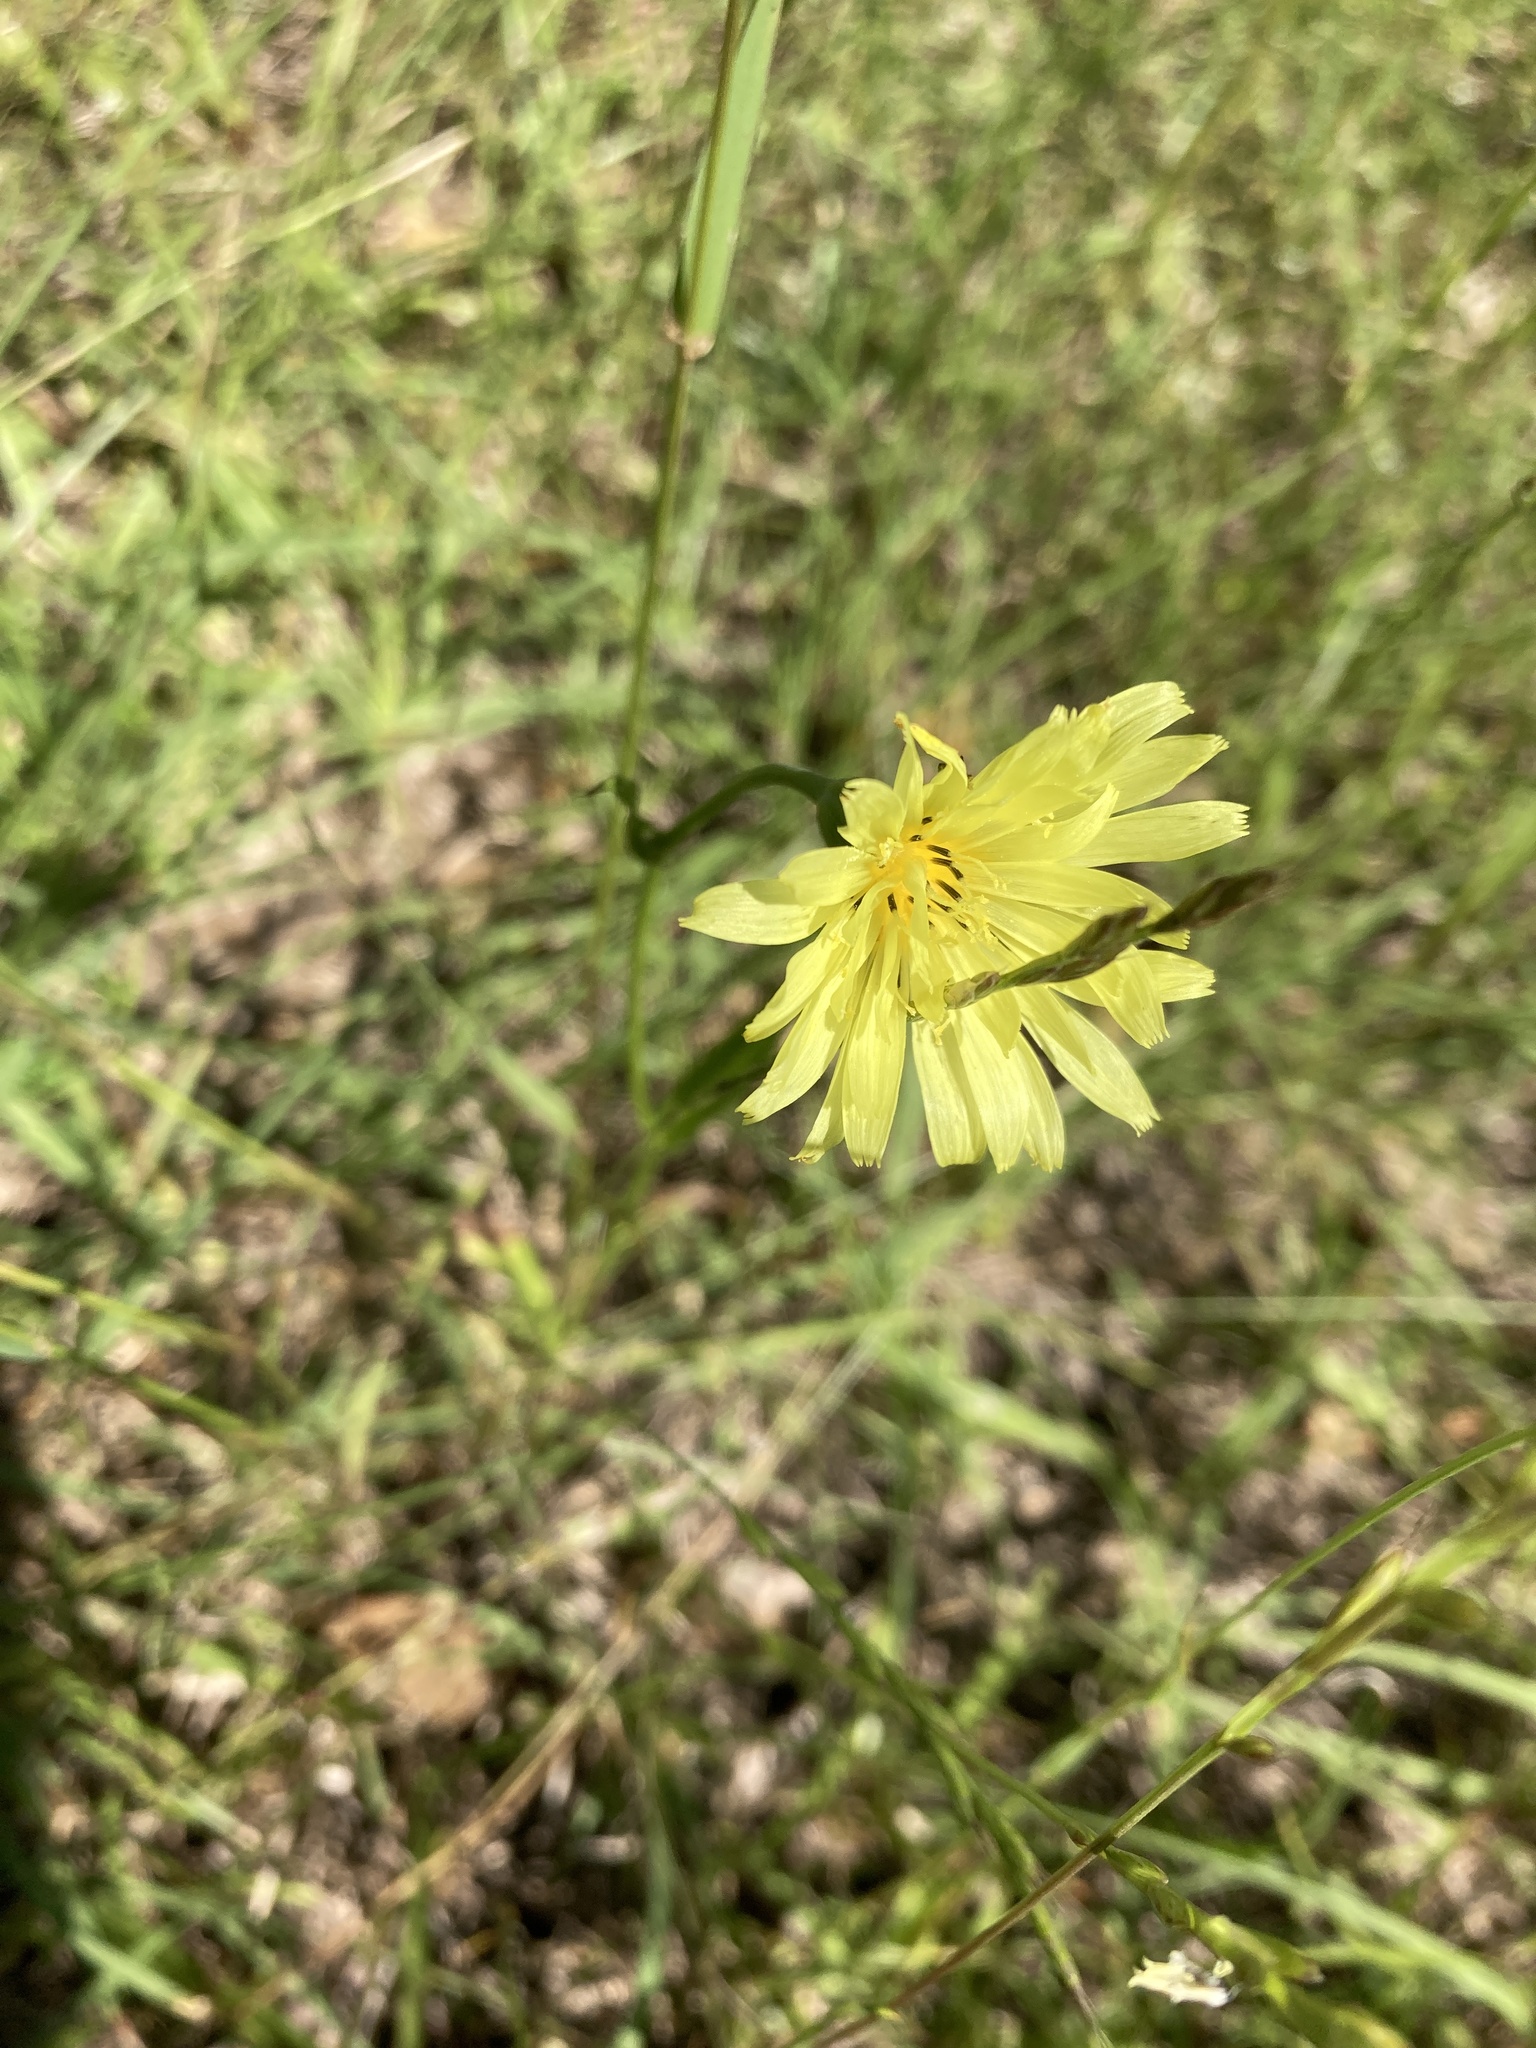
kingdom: Plantae
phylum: Tracheophyta
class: Magnoliopsida
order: Asterales
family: Asteraceae
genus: Pyrrhopappus
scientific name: Pyrrhopappus carolinianus
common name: Carolina desert-chicory
